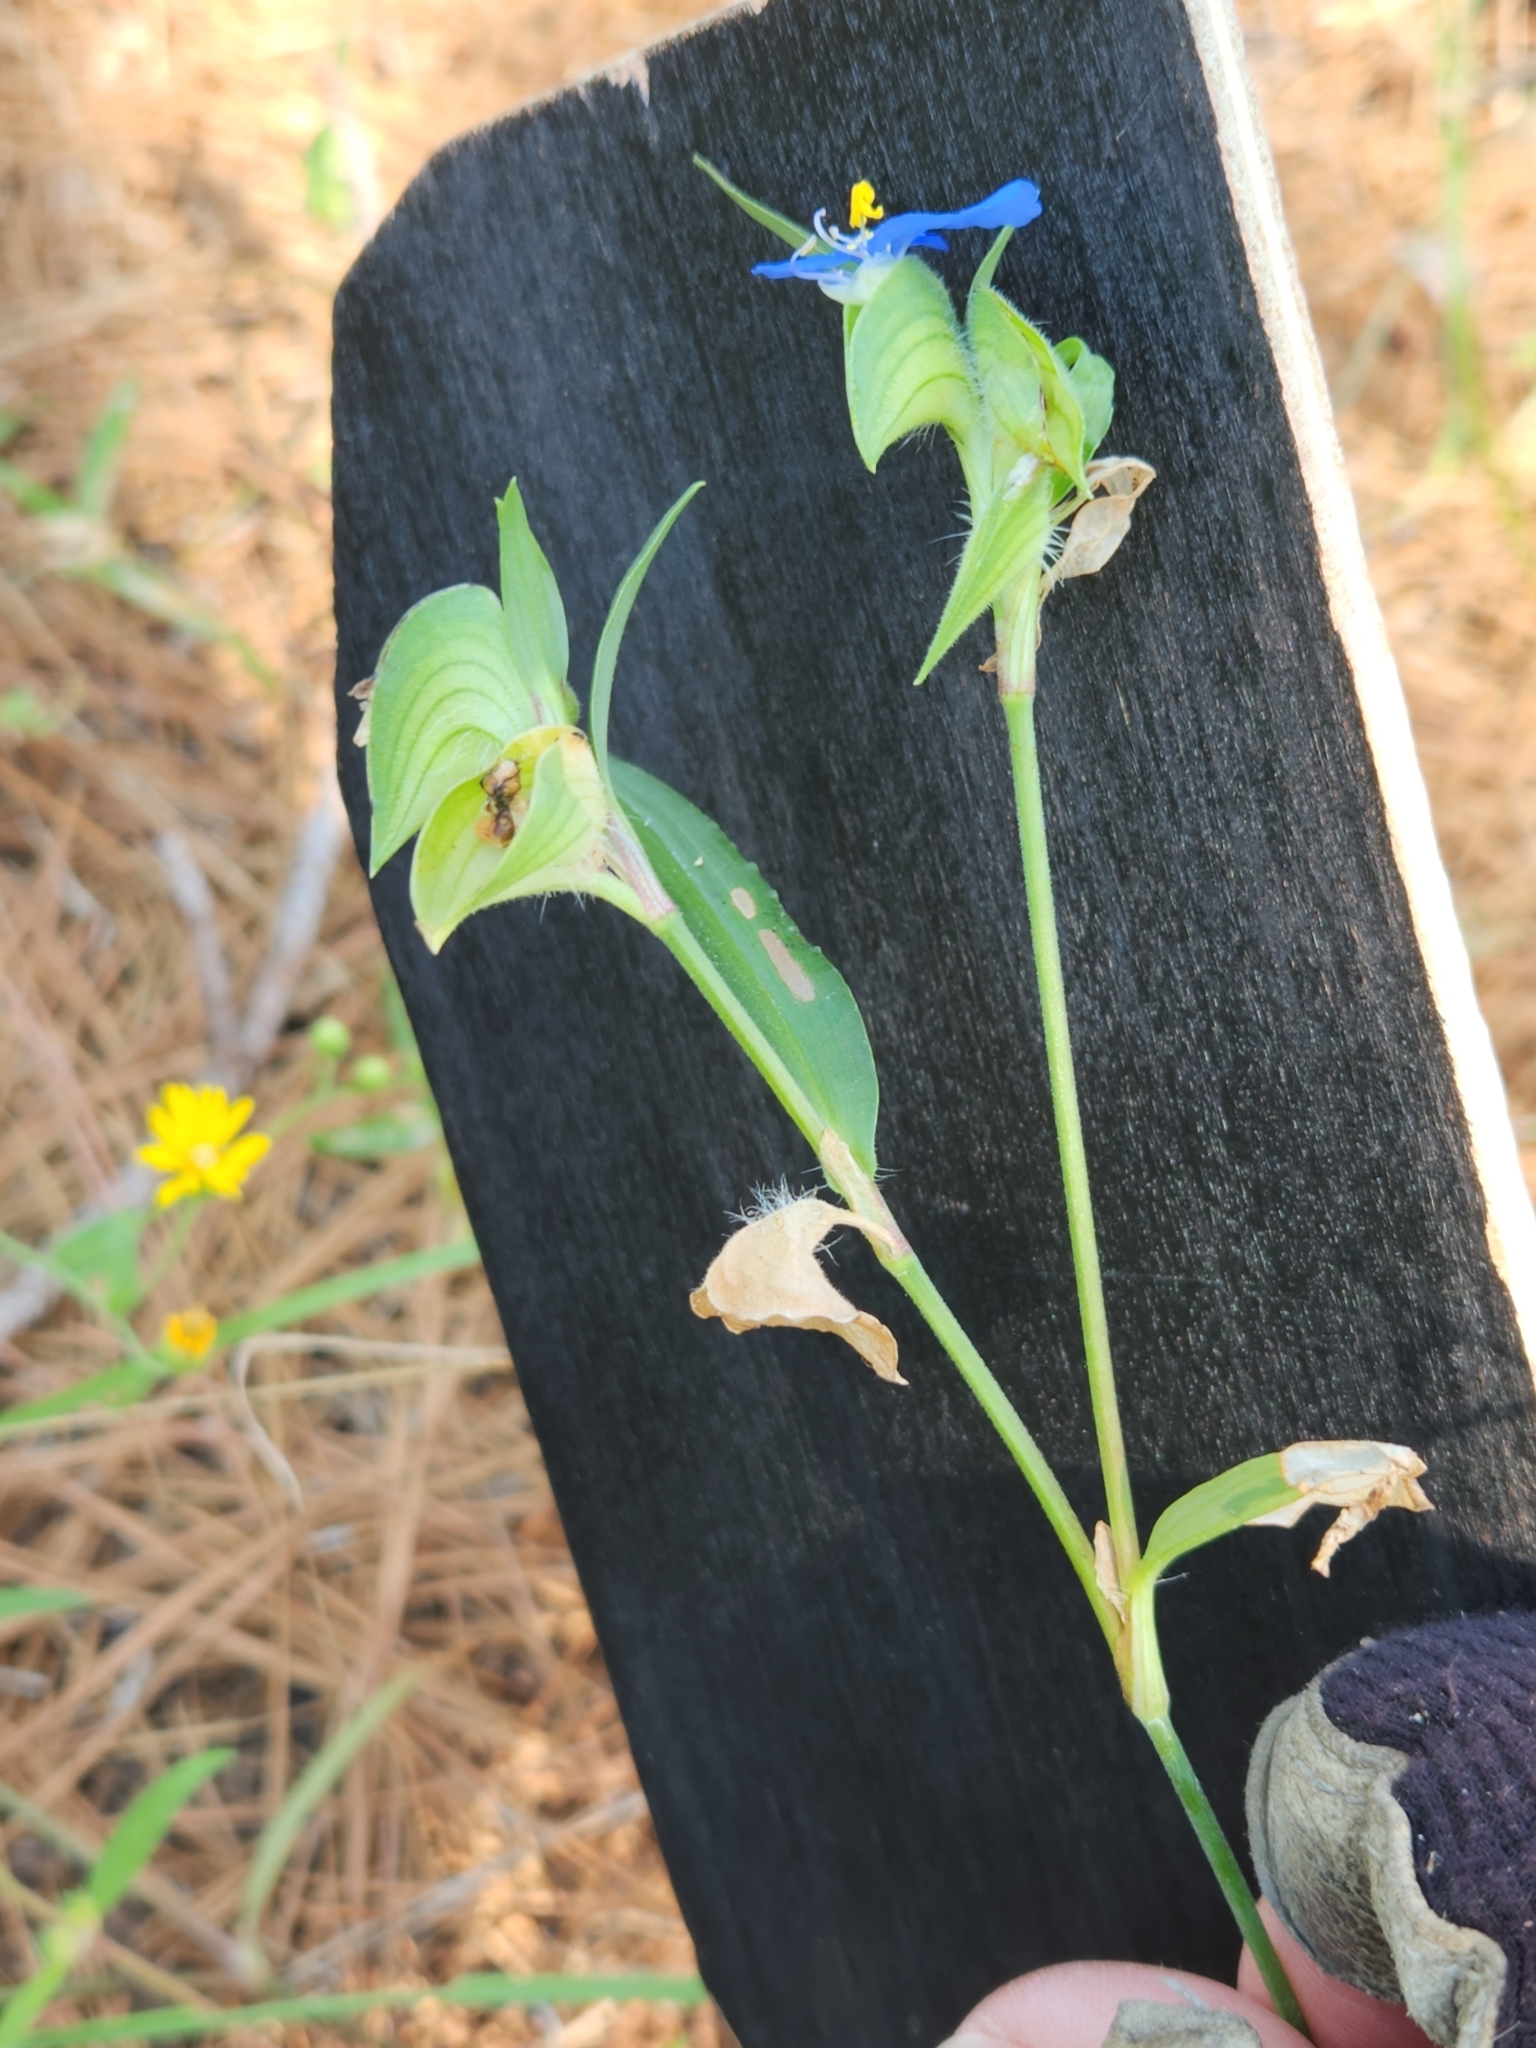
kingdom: Plantae
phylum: Tracheophyta
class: Liliopsida
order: Commelinales
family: Commelinaceae
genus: Commelina
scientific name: Commelina erecta
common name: Blousel blommetjie
